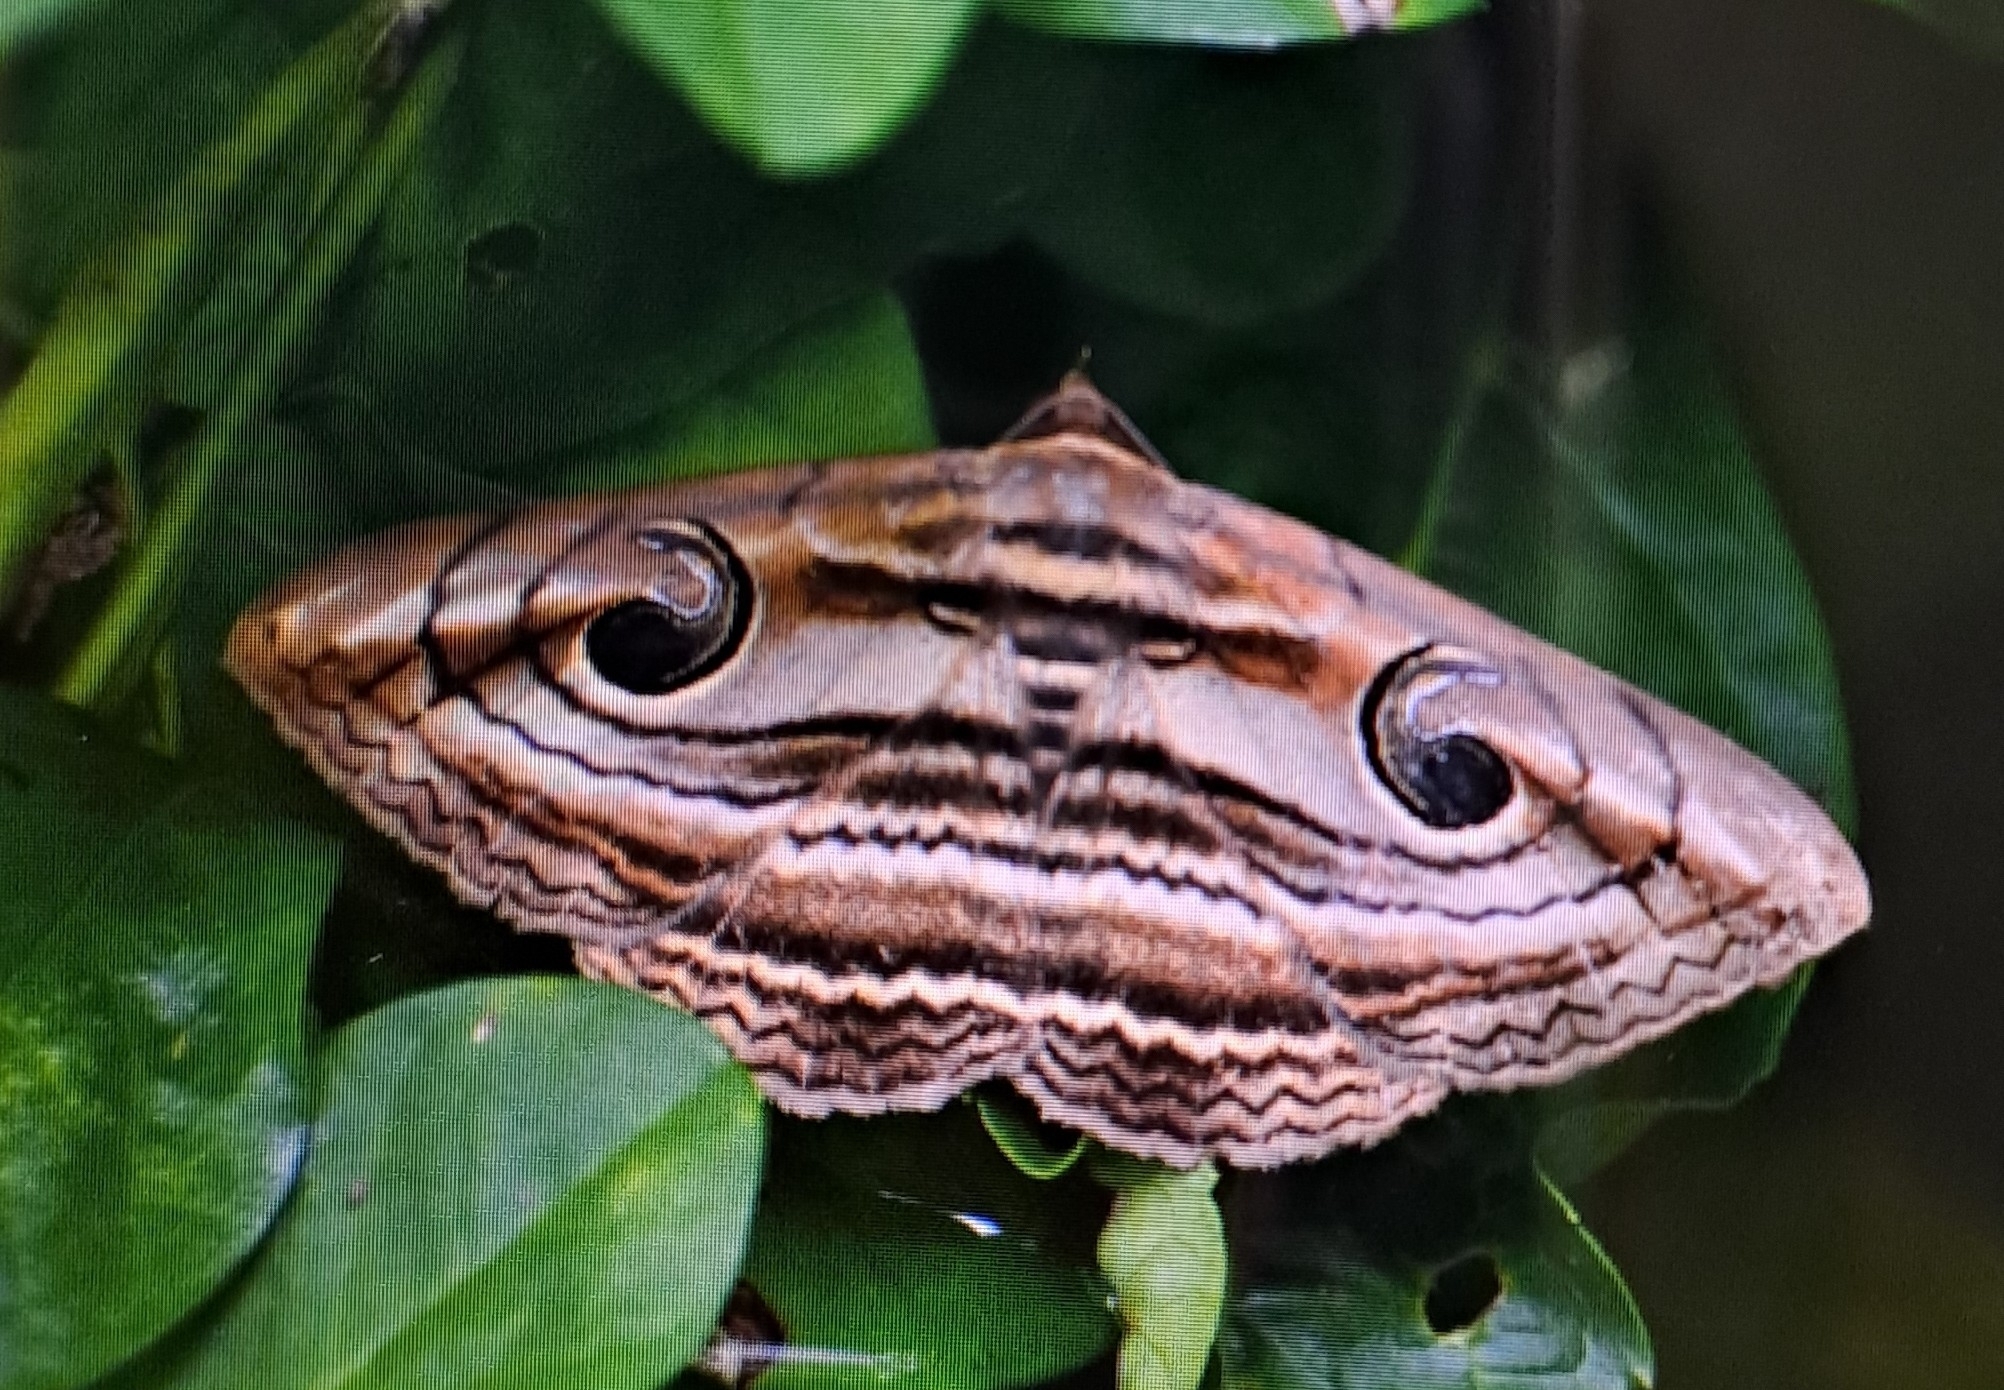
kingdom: Animalia
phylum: Arthropoda
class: Insecta
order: Lepidoptera
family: Erebidae
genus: Spirama
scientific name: Spirama retorta
